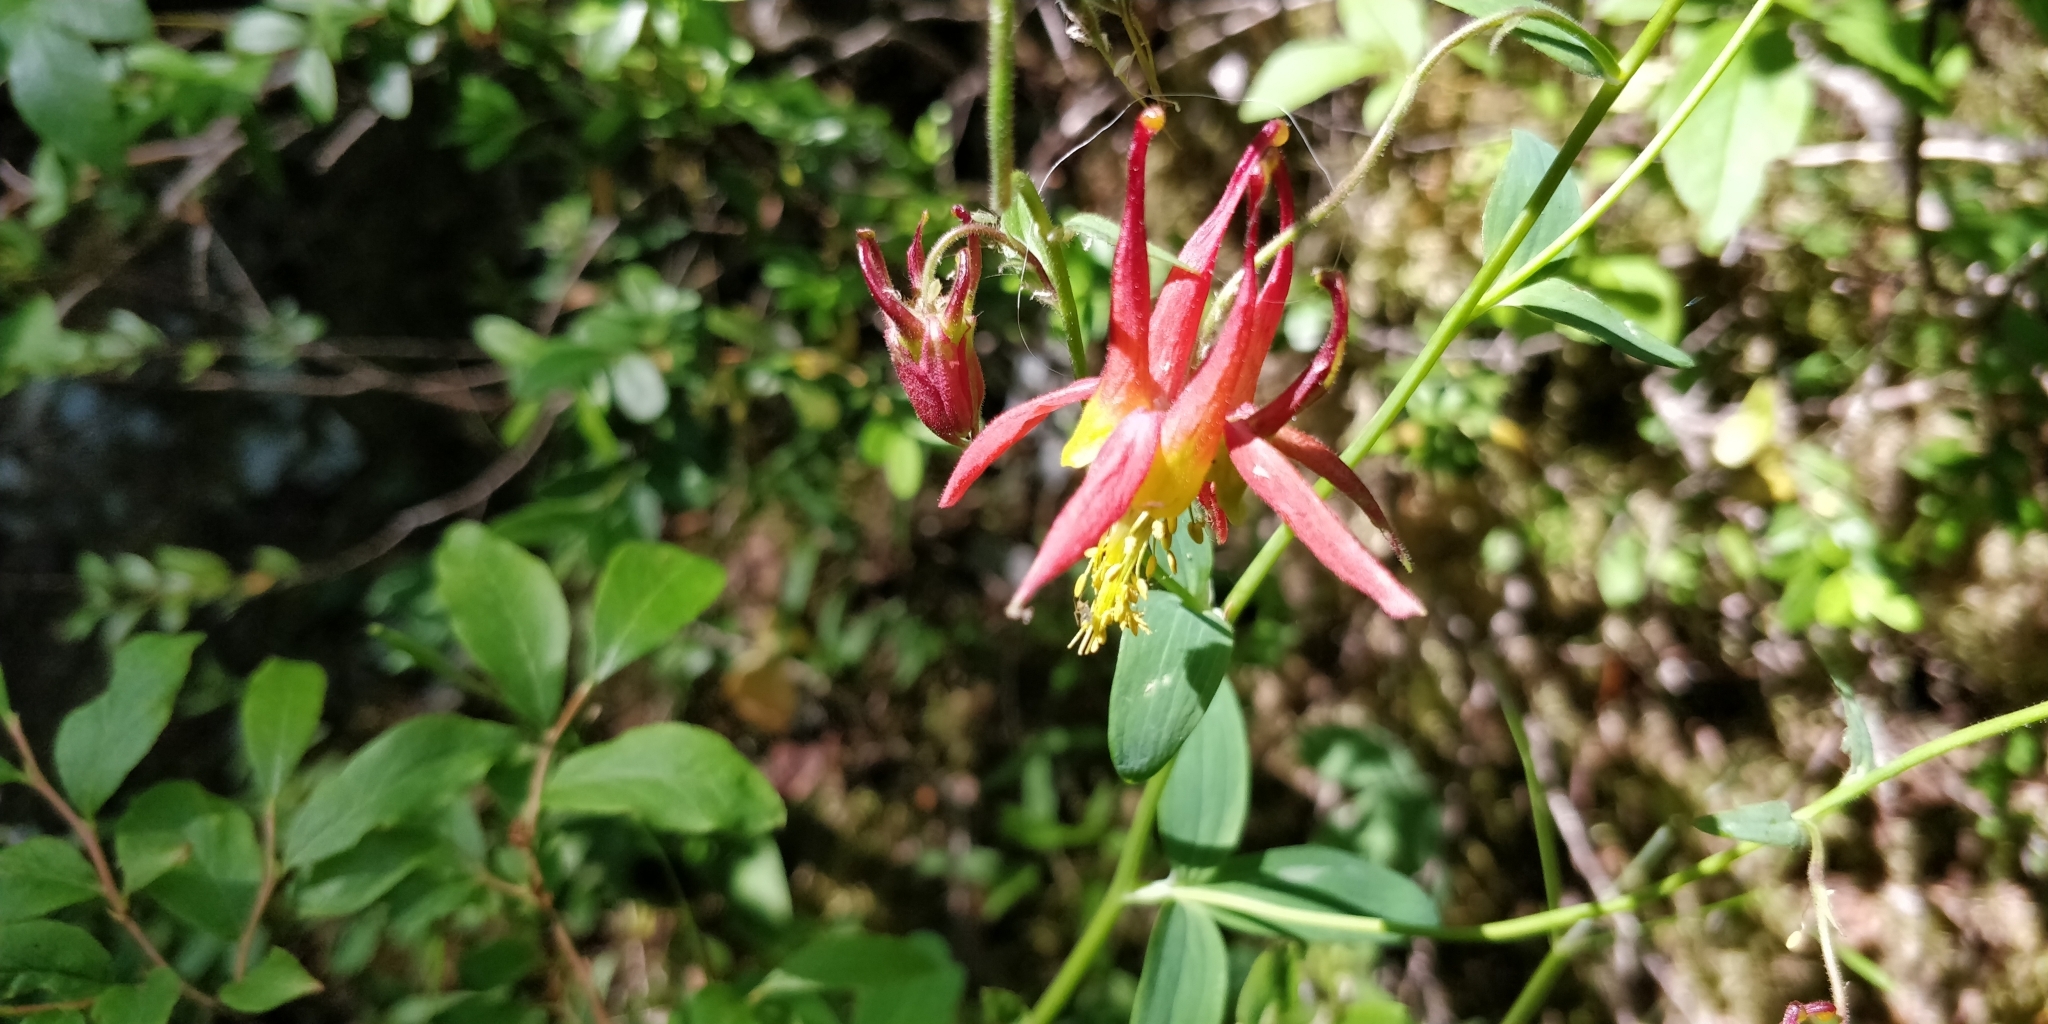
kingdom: Plantae
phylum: Tracheophyta
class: Magnoliopsida
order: Ranunculales
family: Ranunculaceae
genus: Aquilegia
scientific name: Aquilegia formosa
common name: Sitka columbine
